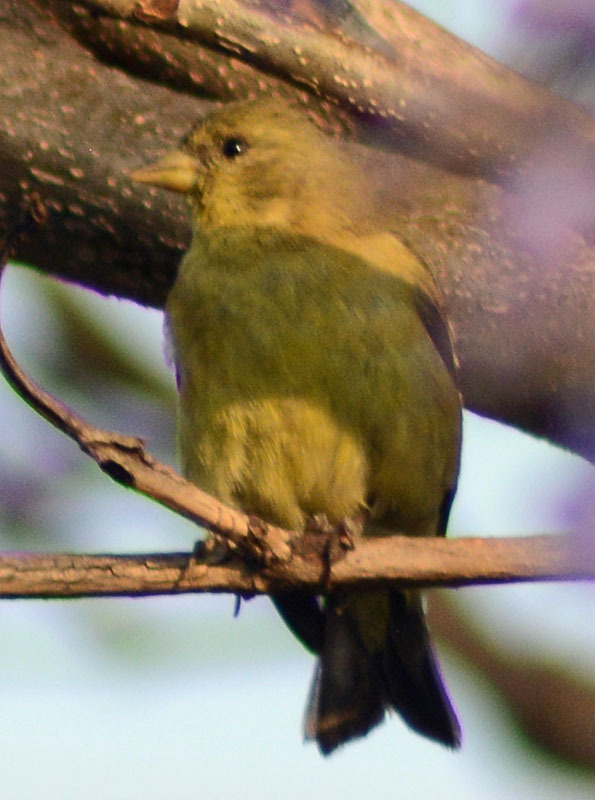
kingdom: Animalia
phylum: Chordata
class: Aves
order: Passeriformes
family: Fringillidae
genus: Spinus
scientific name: Spinus psaltria
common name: Lesser goldfinch
